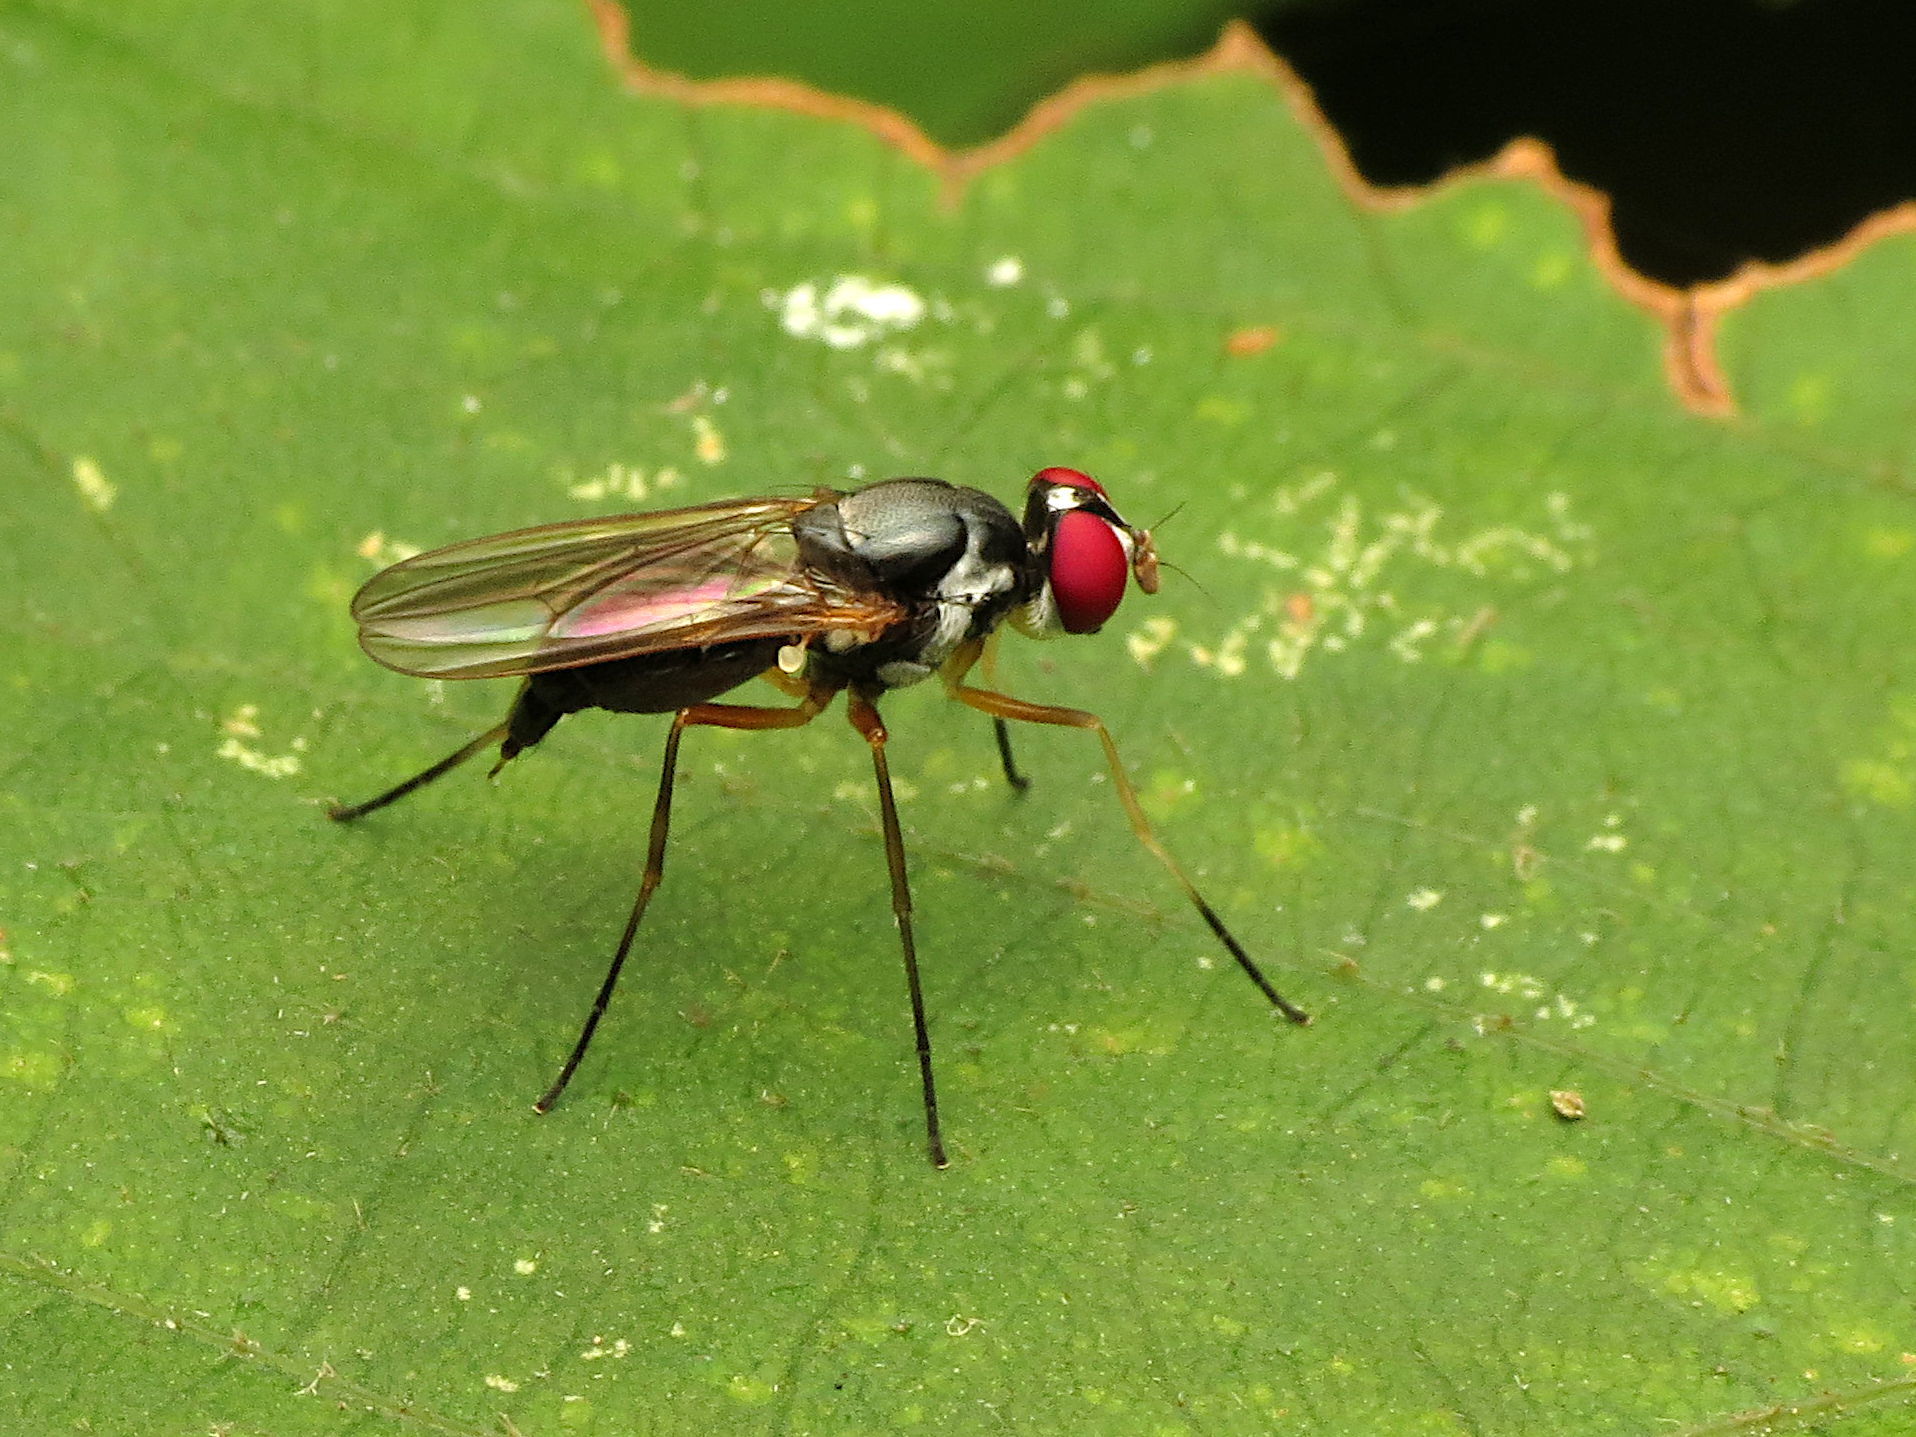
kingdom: Animalia
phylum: Arthropoda
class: Insecta
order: Diptera
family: Tanypezidae
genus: Tanypeza
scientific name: Tanypeza picticornis
